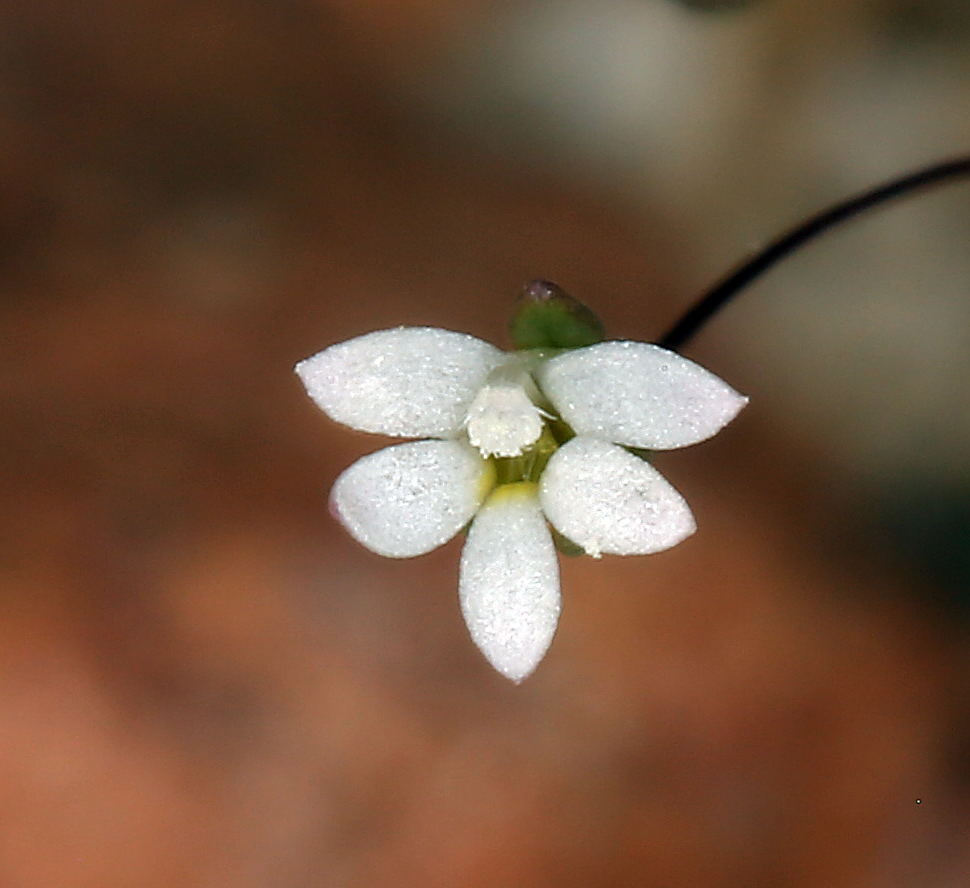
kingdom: Plantae
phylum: Tracheophyta
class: Magnoliopsida
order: Asterales
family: Campanulaceae
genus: Nemacladus
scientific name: Nemacladus sigmoideus
